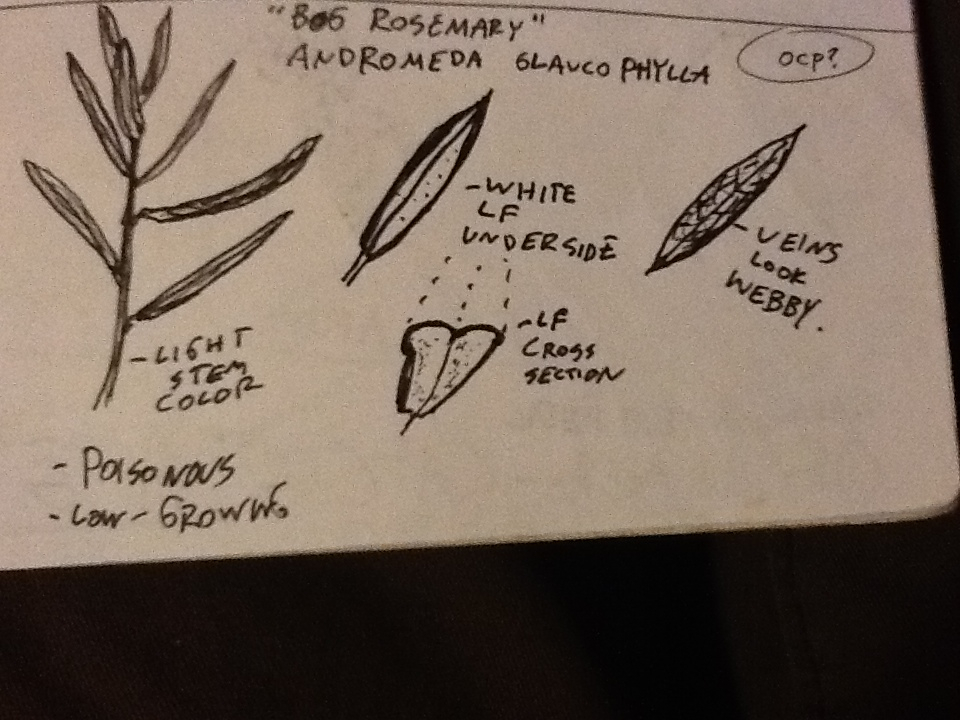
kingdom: Plantae
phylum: Tracheophyta
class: Magnoliopsida
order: Ericales
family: Ericaceae
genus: Andromeda
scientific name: Andromeda polifolia
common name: Bog-rosemary
